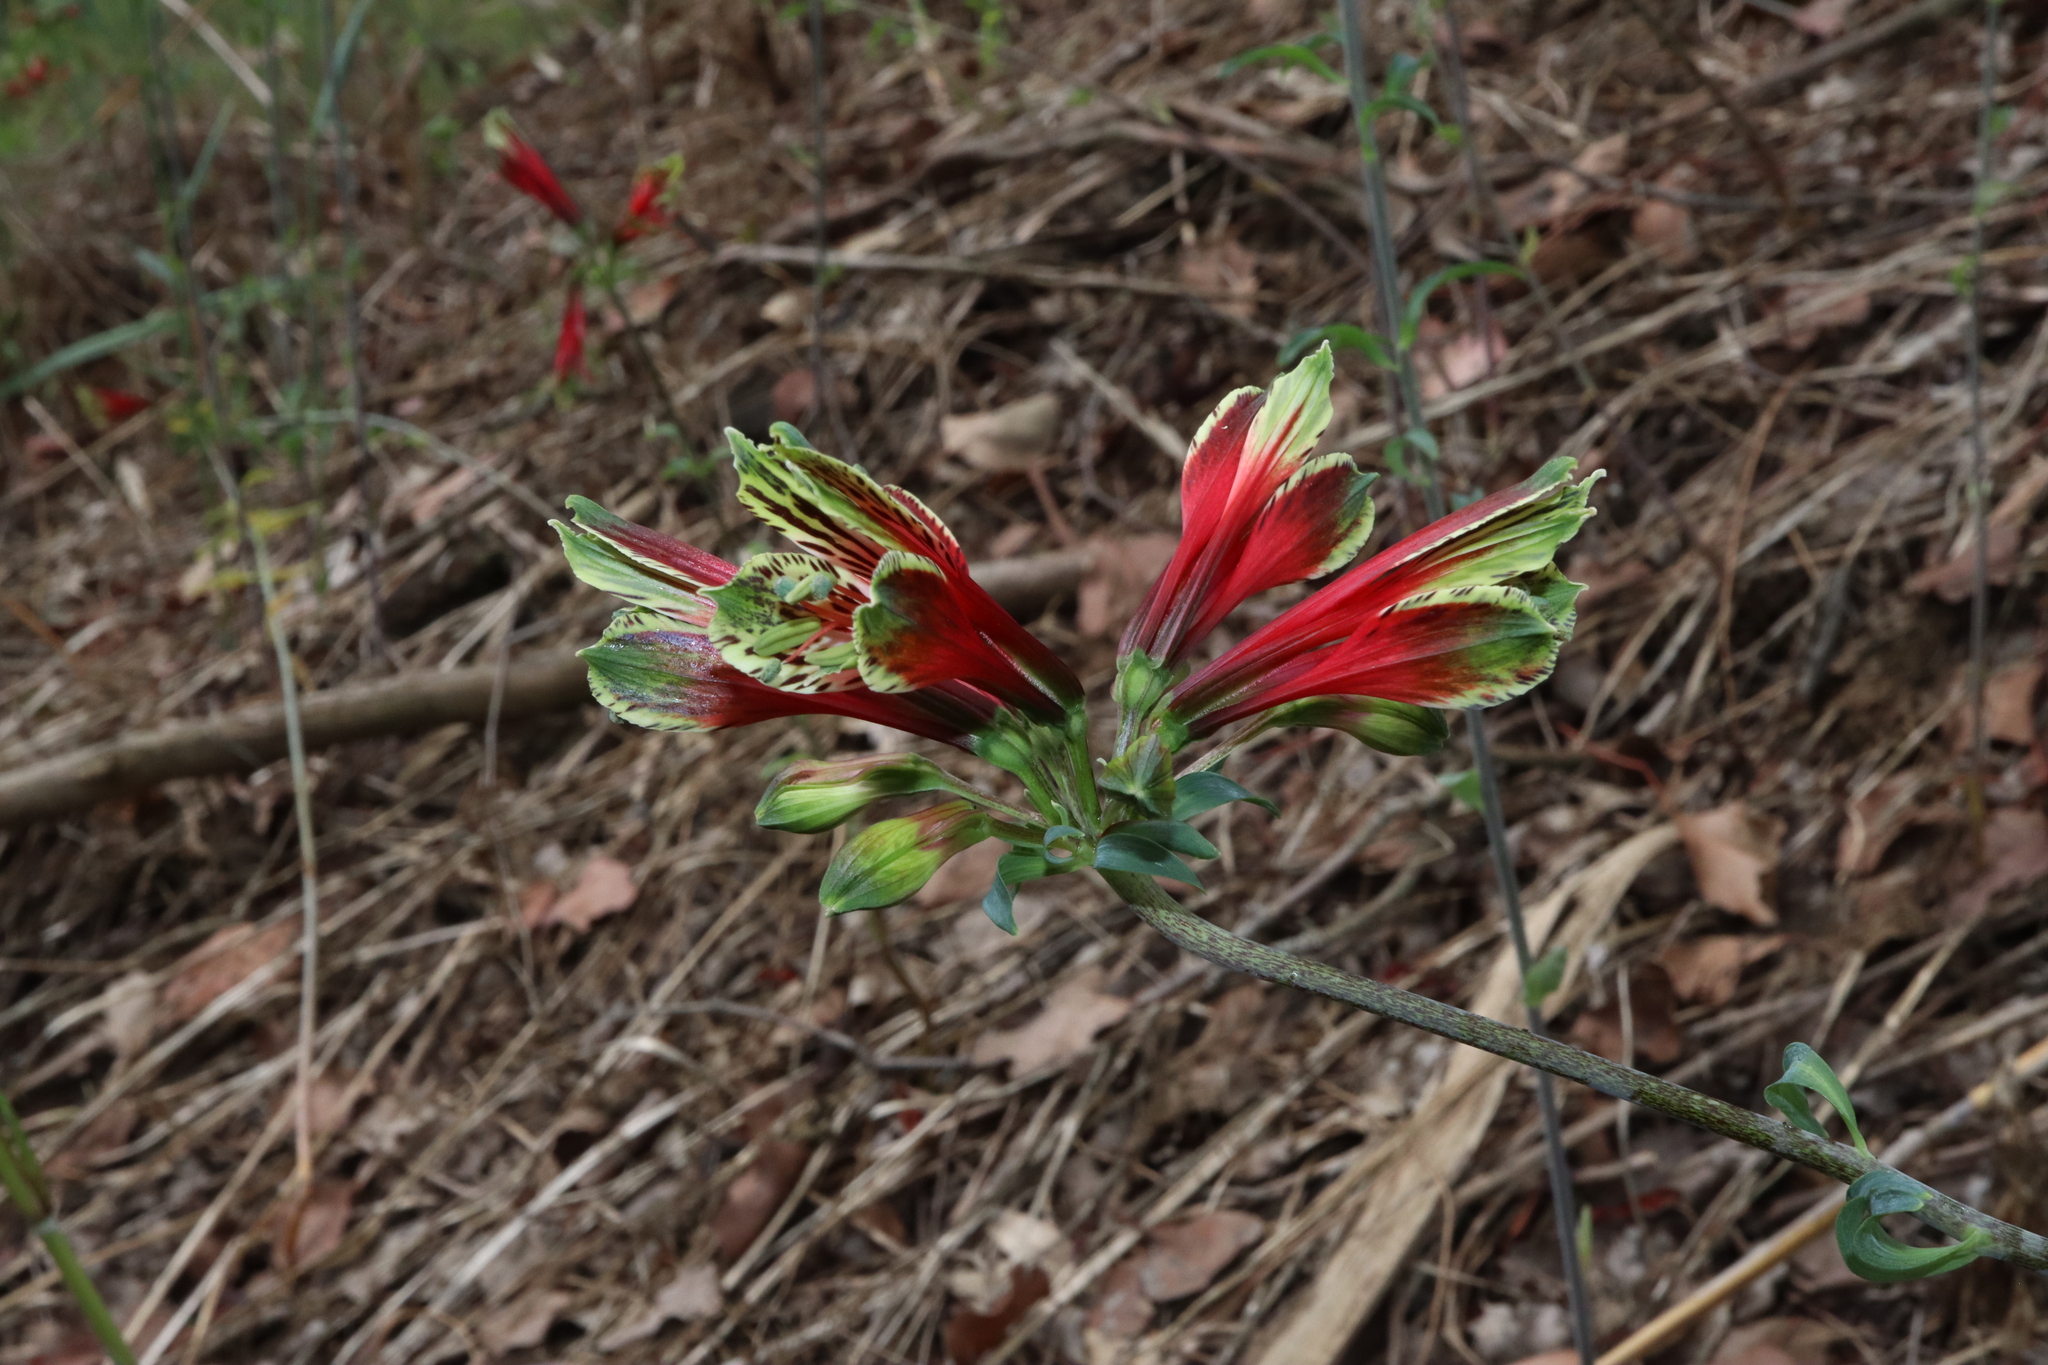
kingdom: Plantae
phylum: Tracheophyta
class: Liliopsida
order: Liliales
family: Alstroemeriaceae
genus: Alstroemeria
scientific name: Alstroemeria psittacina
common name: Peruvian-lily
